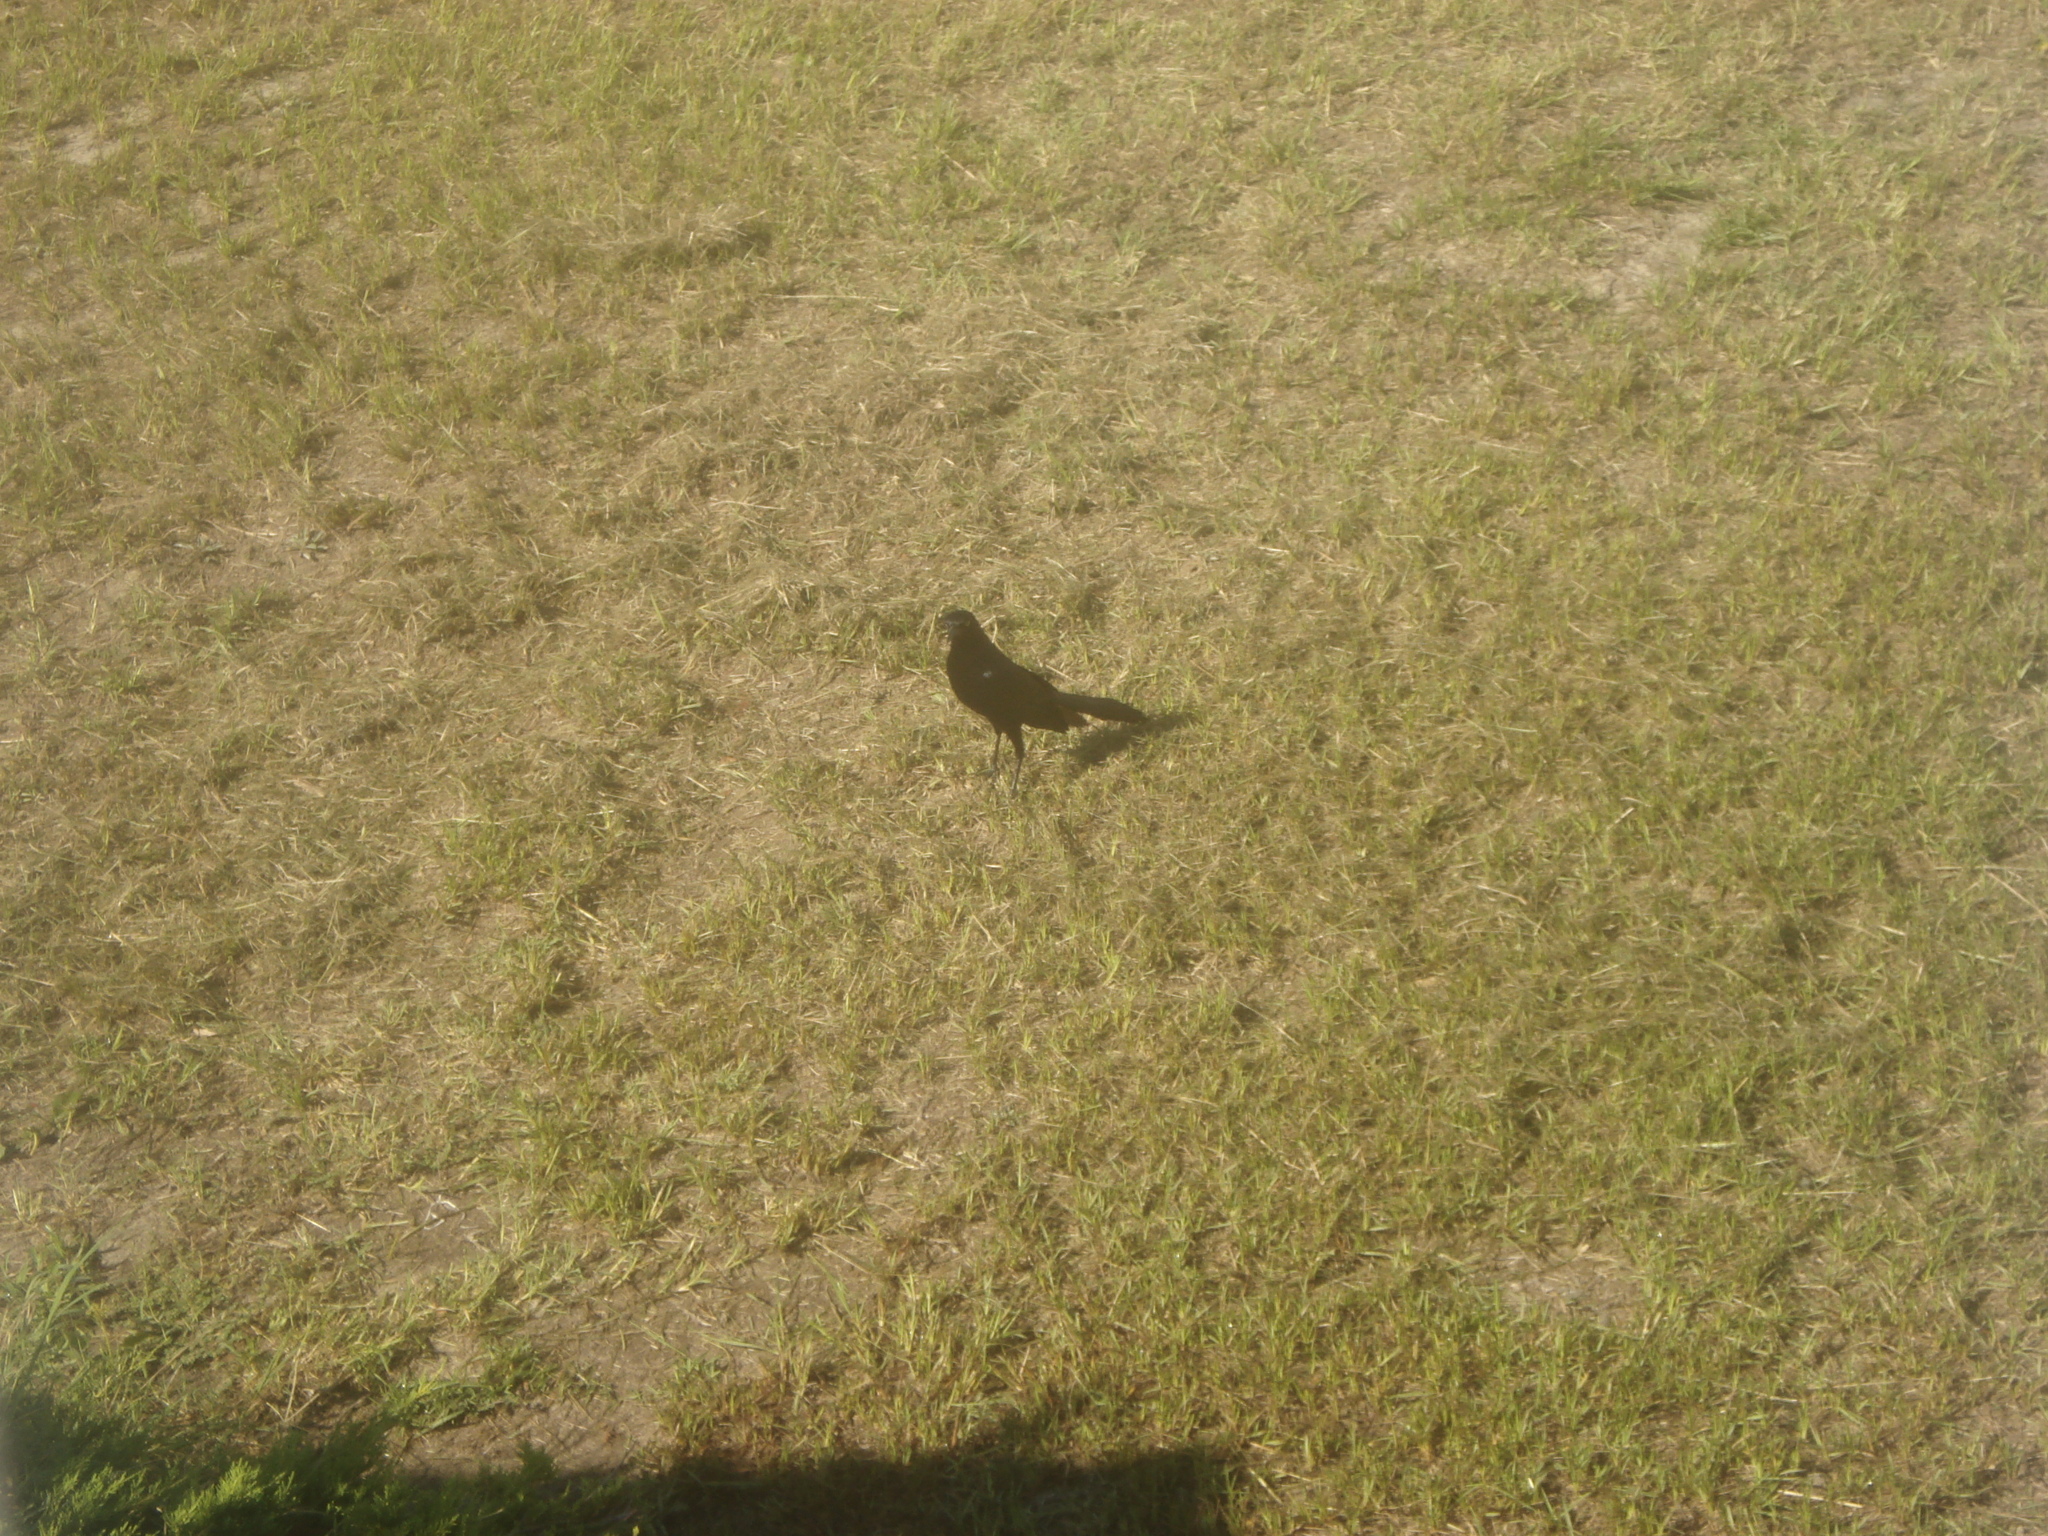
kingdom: Animalia
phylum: Chordata
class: Aves
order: Passeriformes
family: Icteridae
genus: Quiscalus
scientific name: Quiscalus major
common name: Boat-tailed grackle
